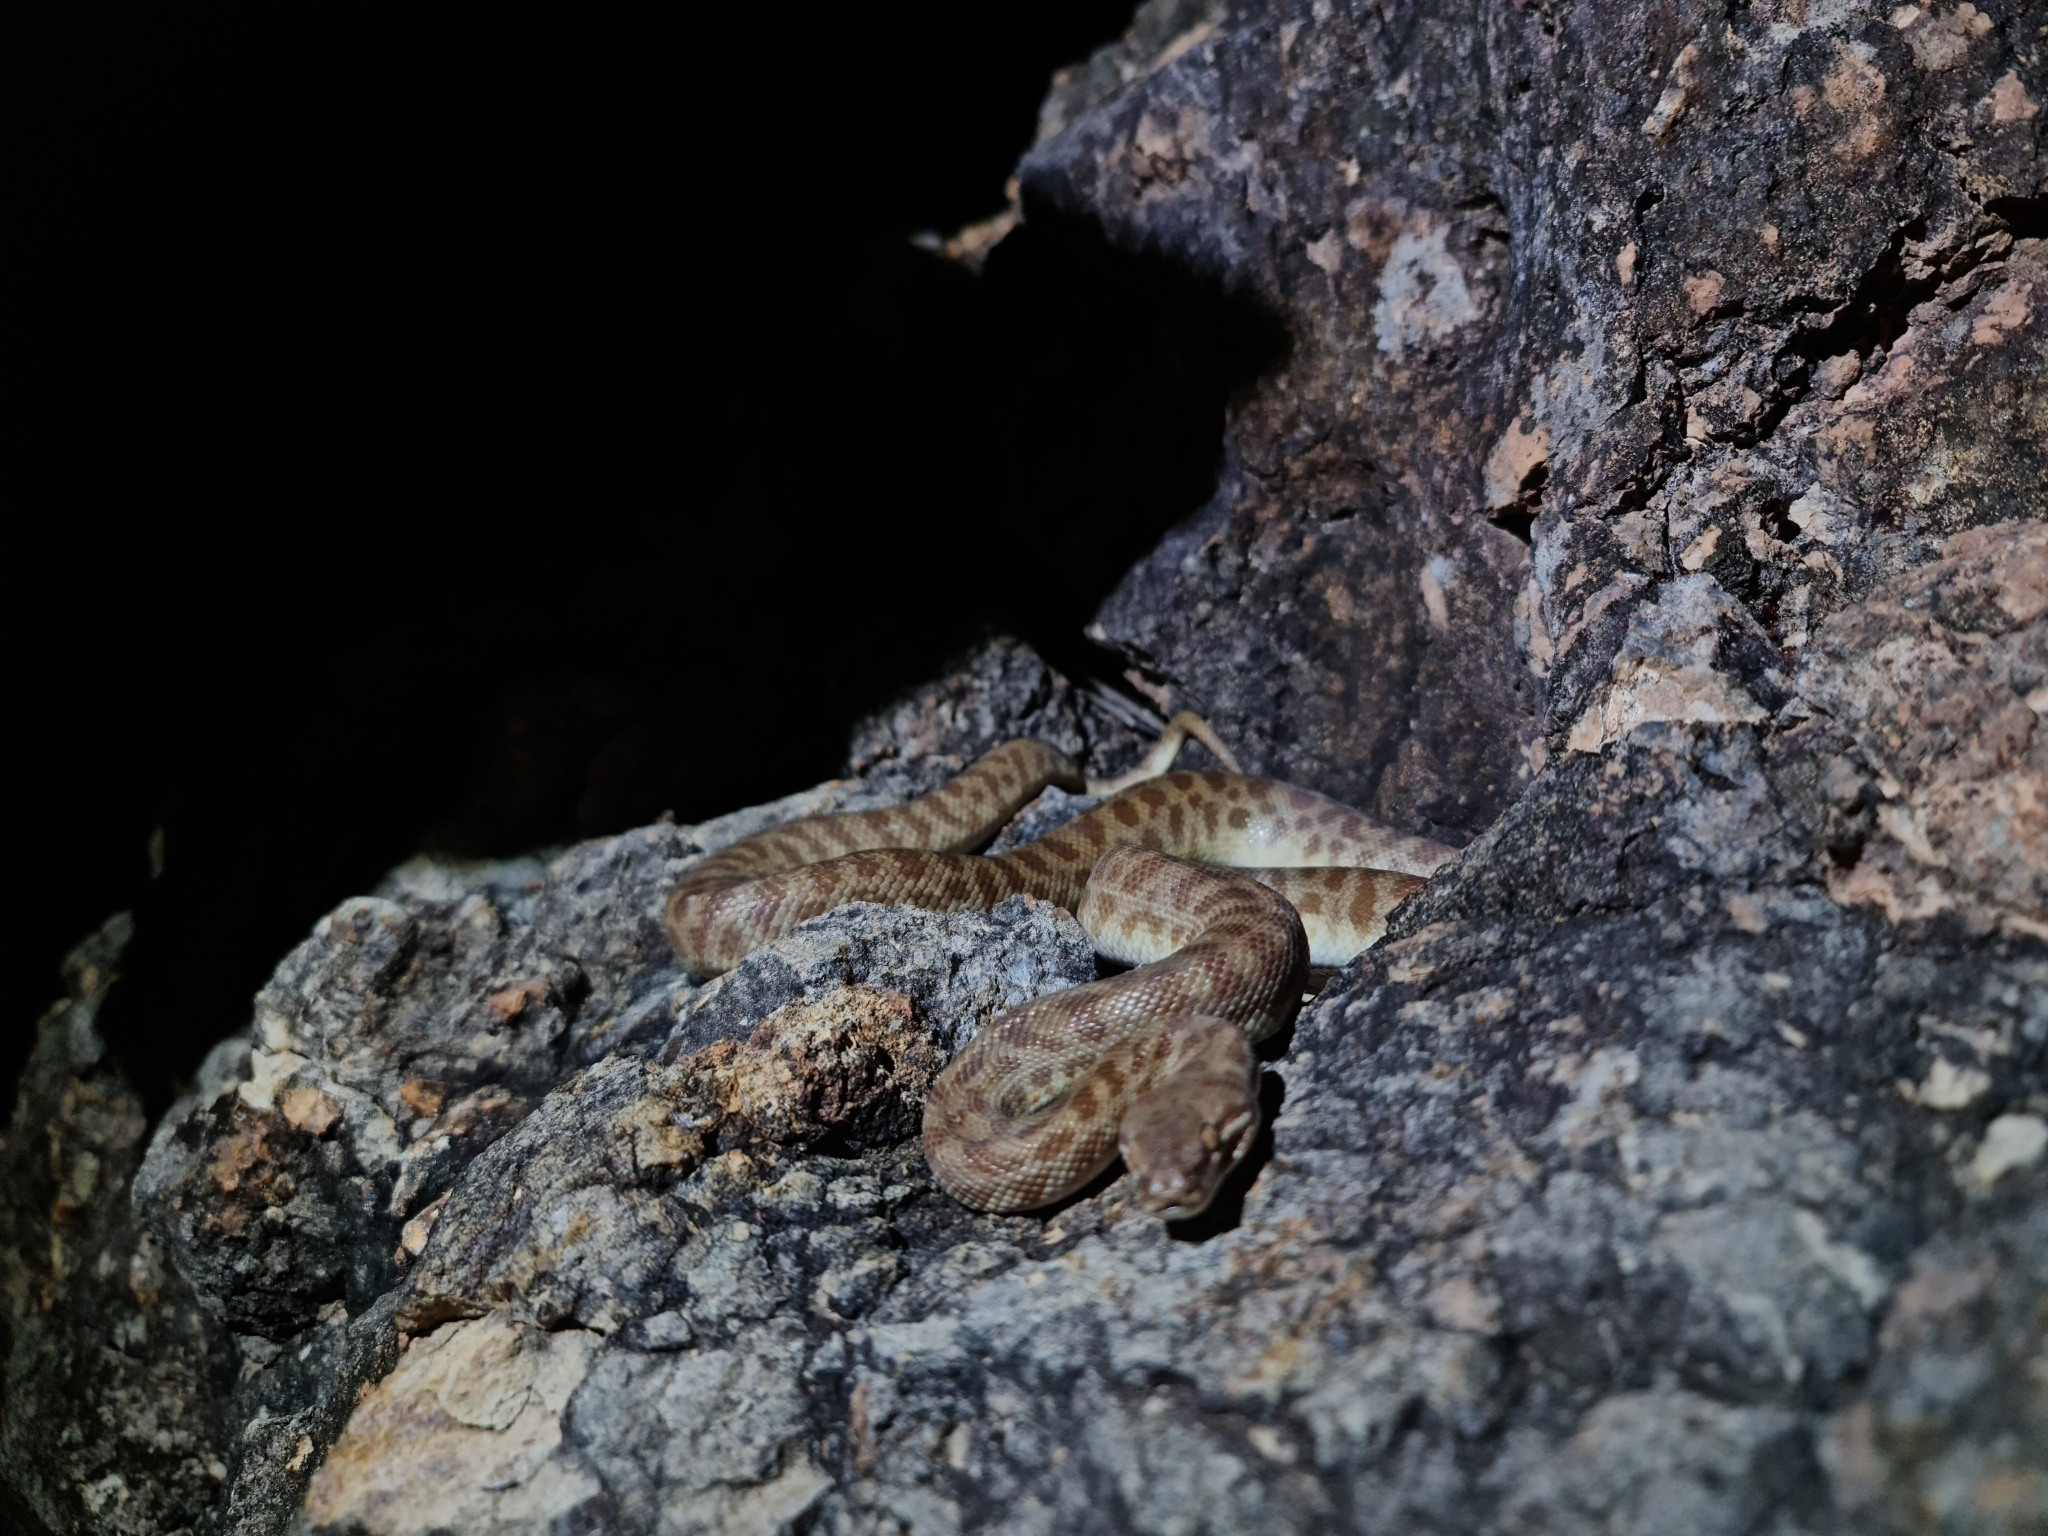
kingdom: Animalia
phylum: Chordata
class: Squamata
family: Pythonidae
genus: Antaresia
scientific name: Antaresia childreni
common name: Children's python
